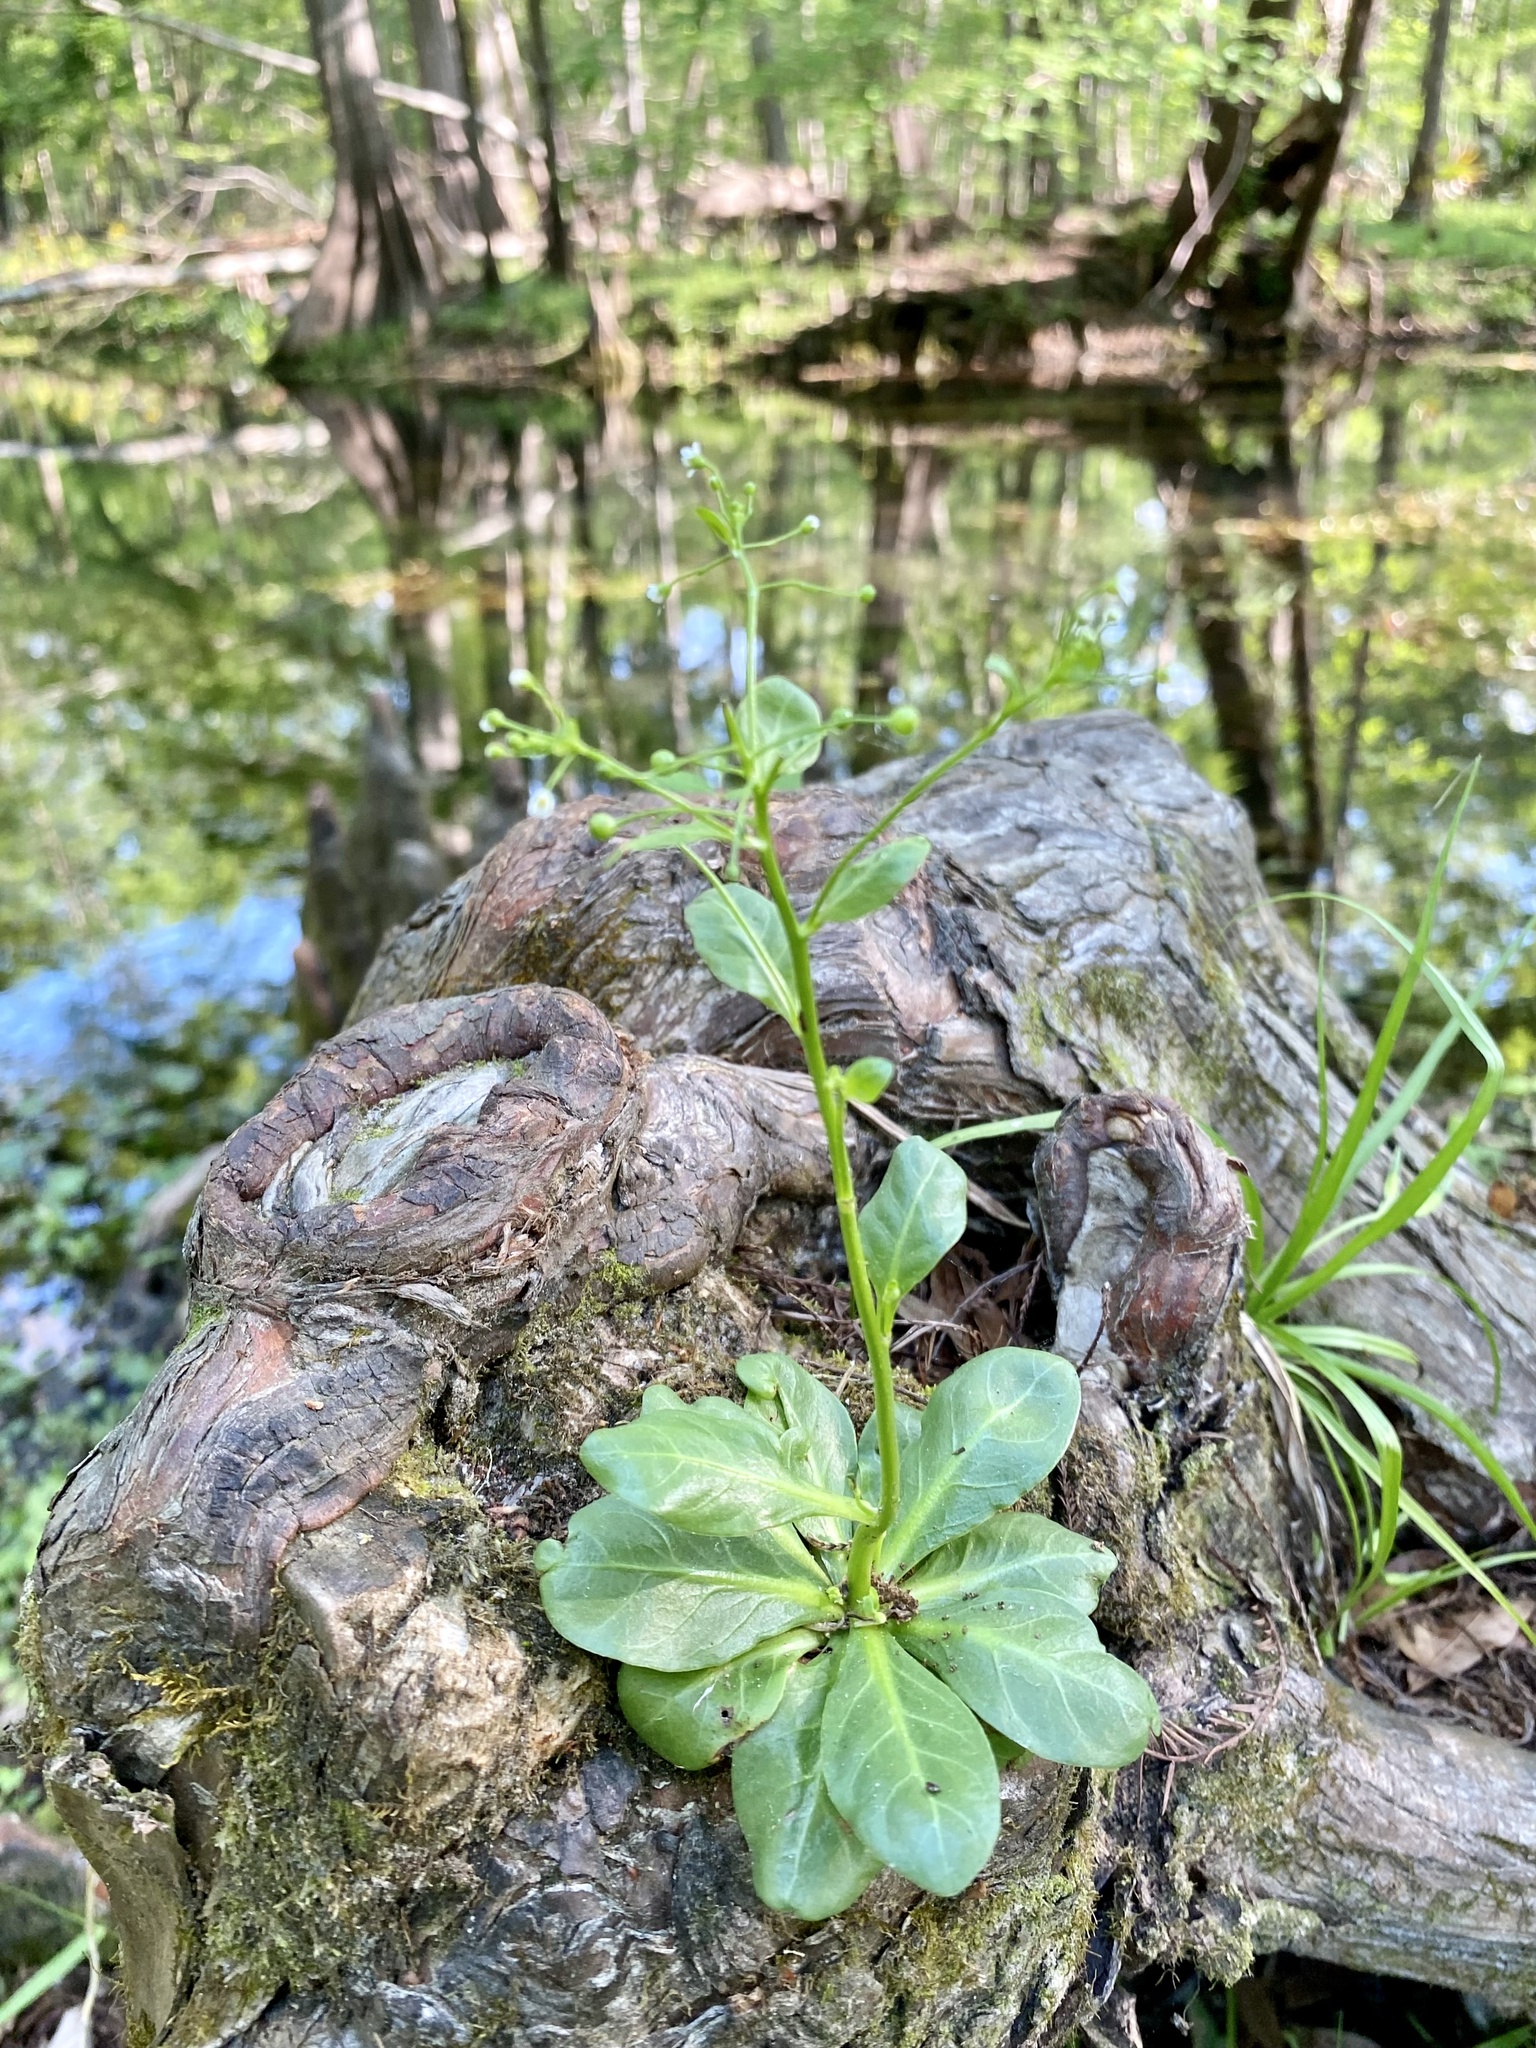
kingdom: Plantae
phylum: Tracheophyta
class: Magnoliopsida
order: Ericales
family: Primulaceae
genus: Samolus
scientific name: Samolus parviflorus
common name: False water pimpernel
